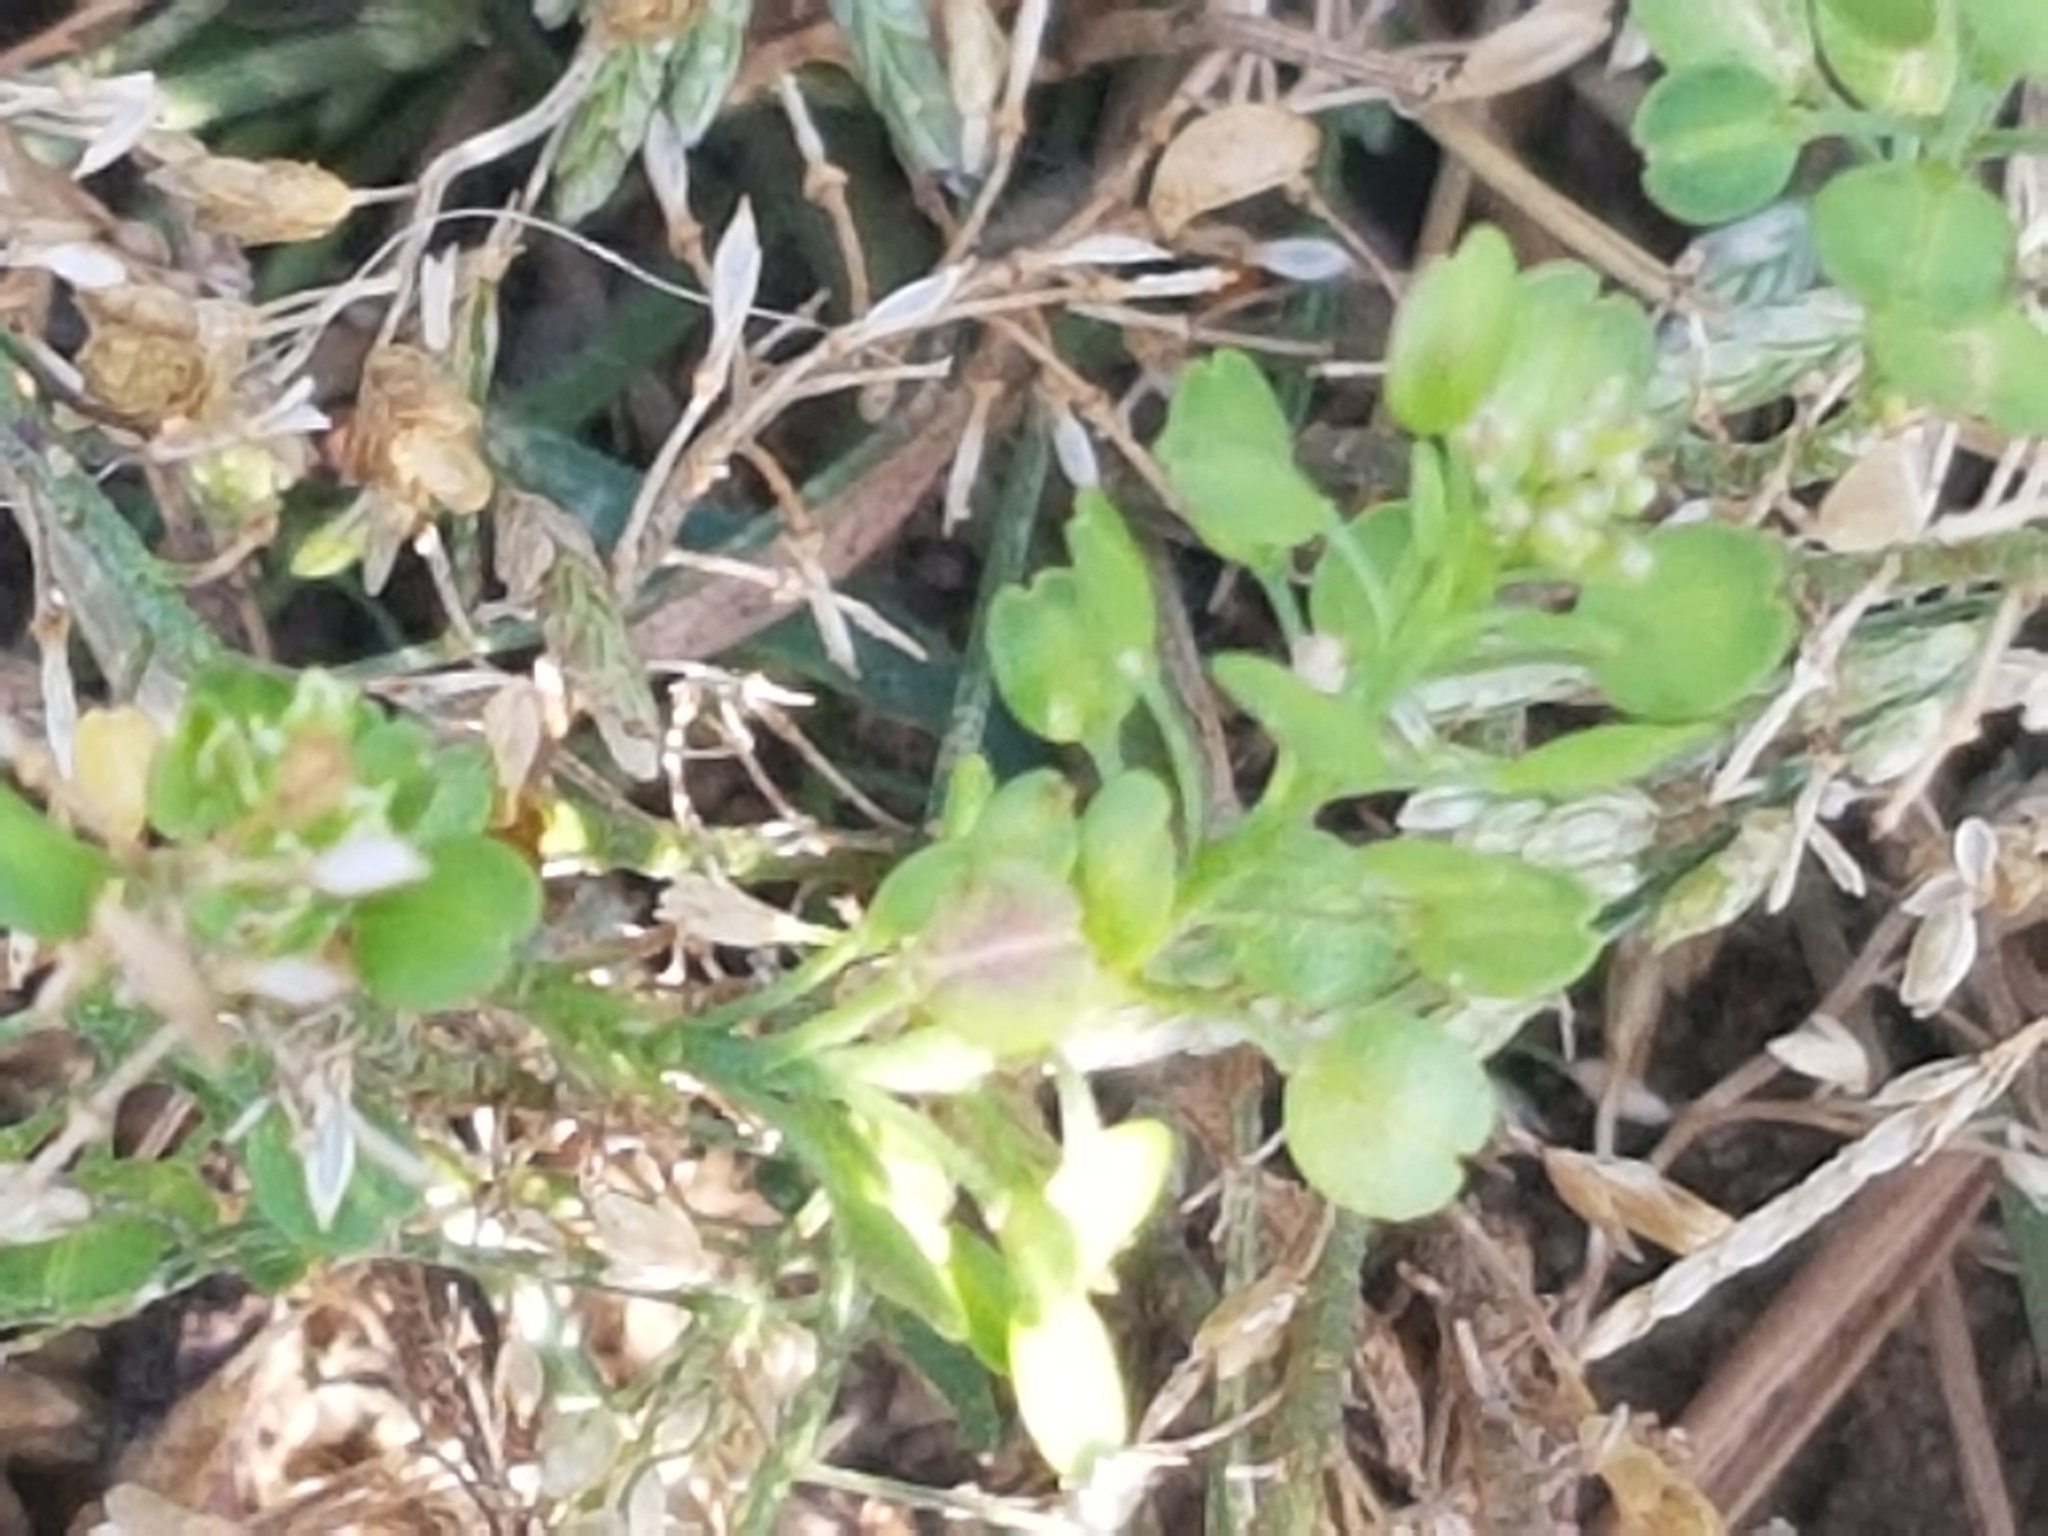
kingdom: Plantae
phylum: Tracheophyta
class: Magnoliopsida
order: Brassicales
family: Brassicaceae
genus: Lepidium
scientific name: Lepidium densiflorum
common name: Miner's pepperwort
